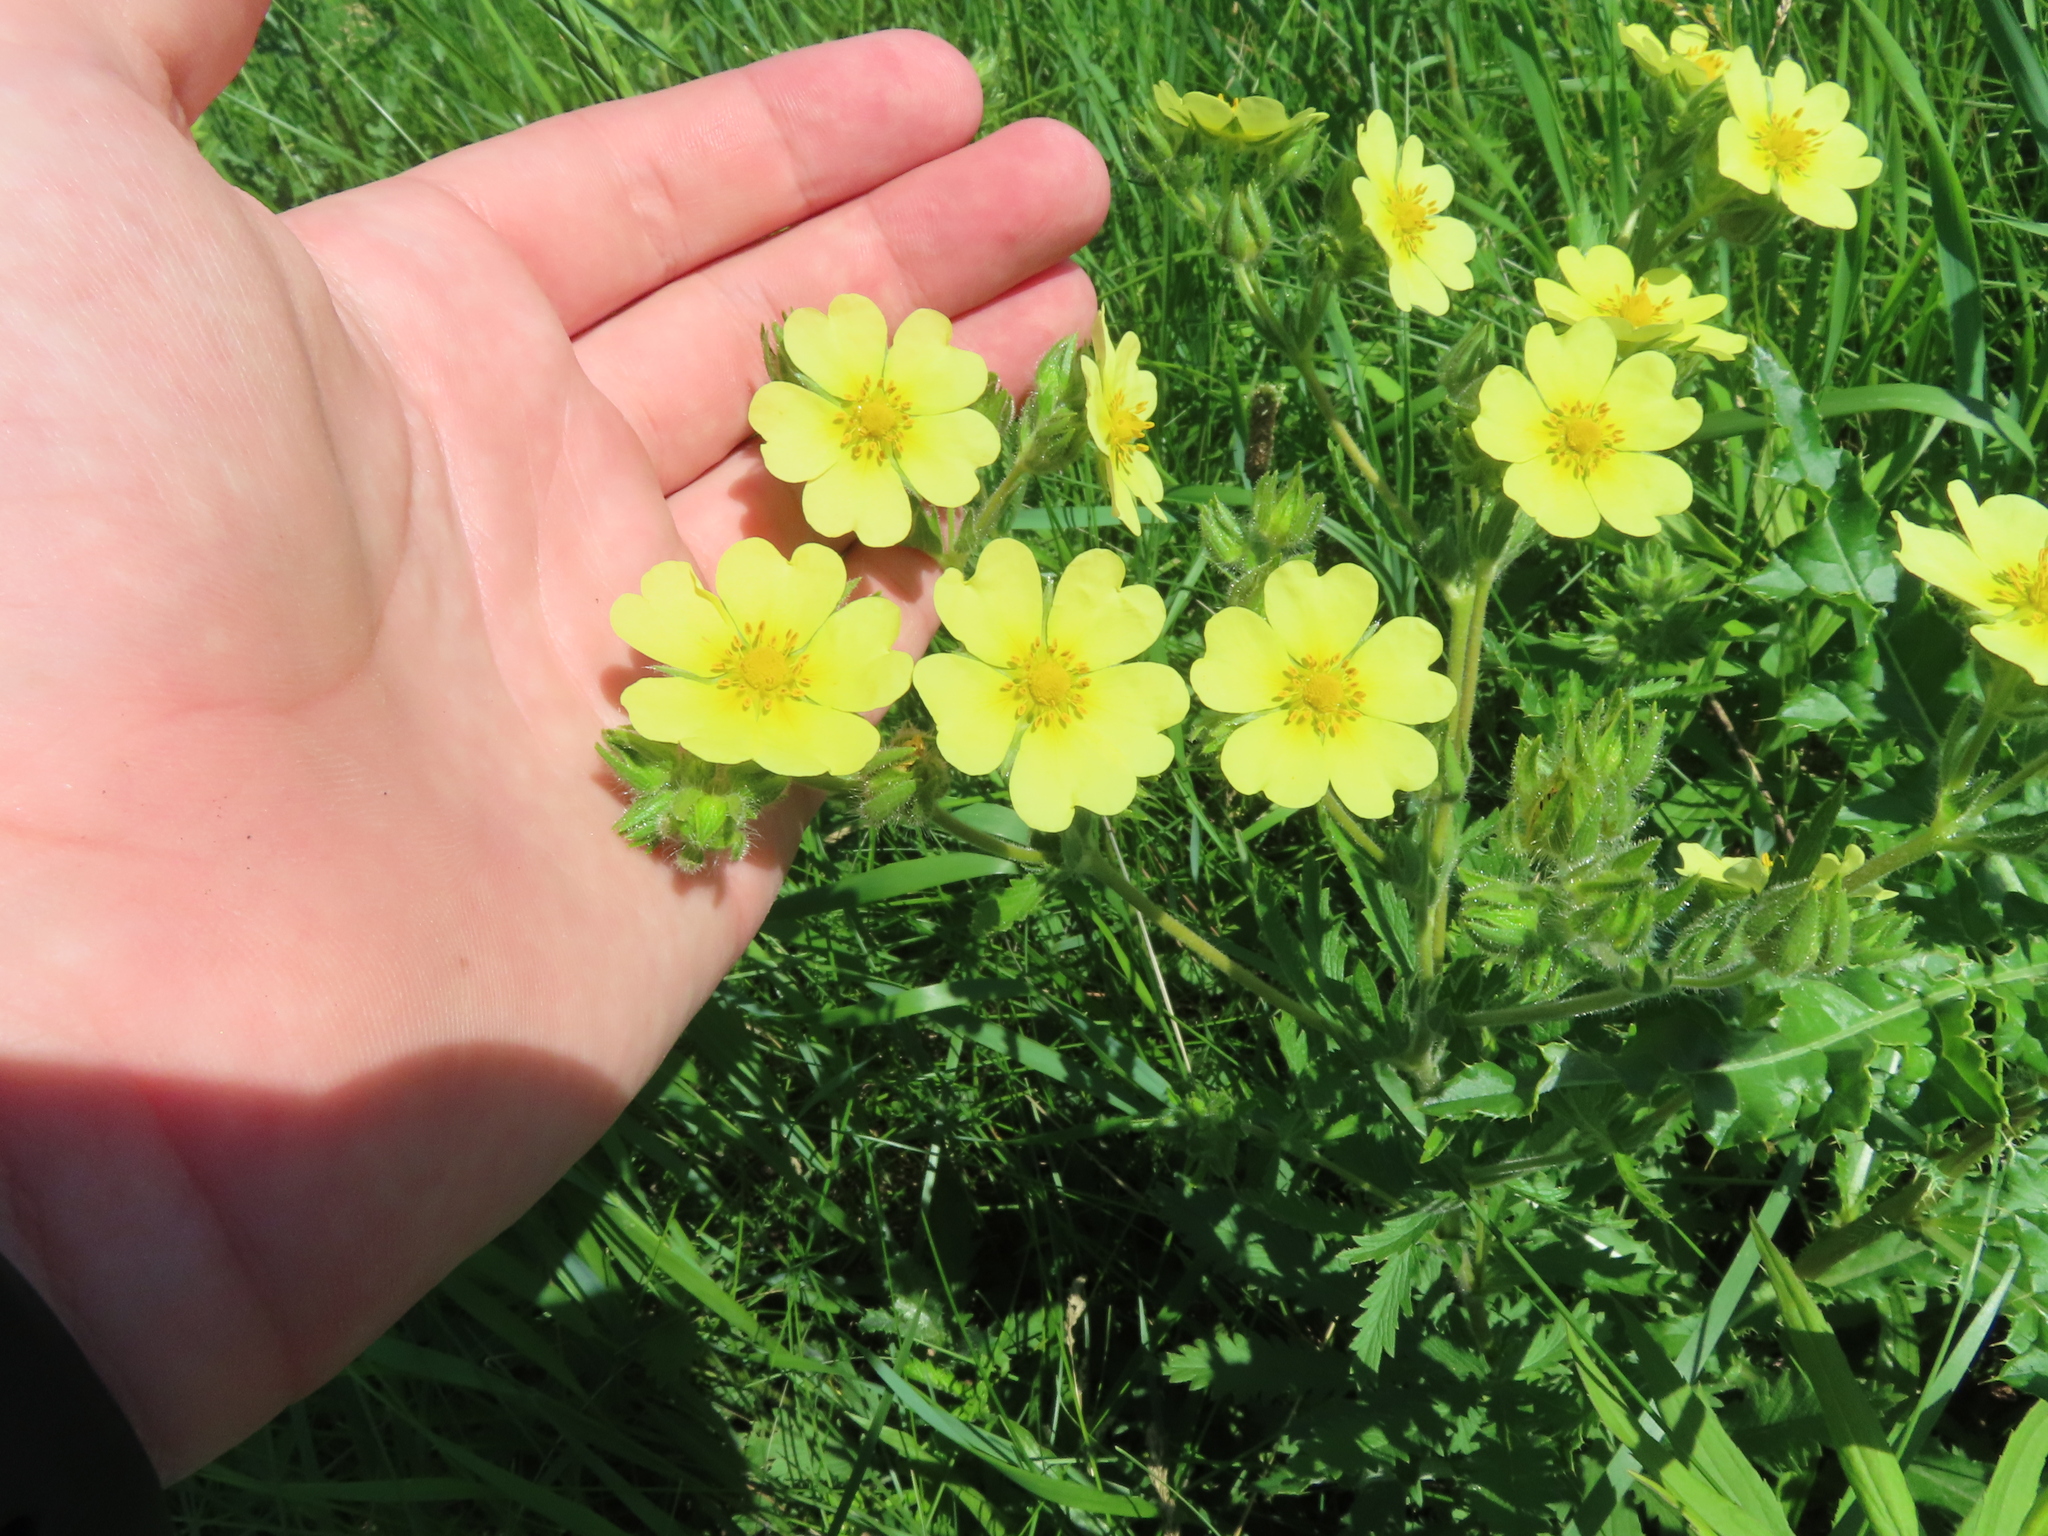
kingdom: Plantae
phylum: Tracheophyta
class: Magnoliopsida
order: Rosales
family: Rosaceae
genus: Potentilla
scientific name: Potentilla recta
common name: Sulphur cinquefoil
